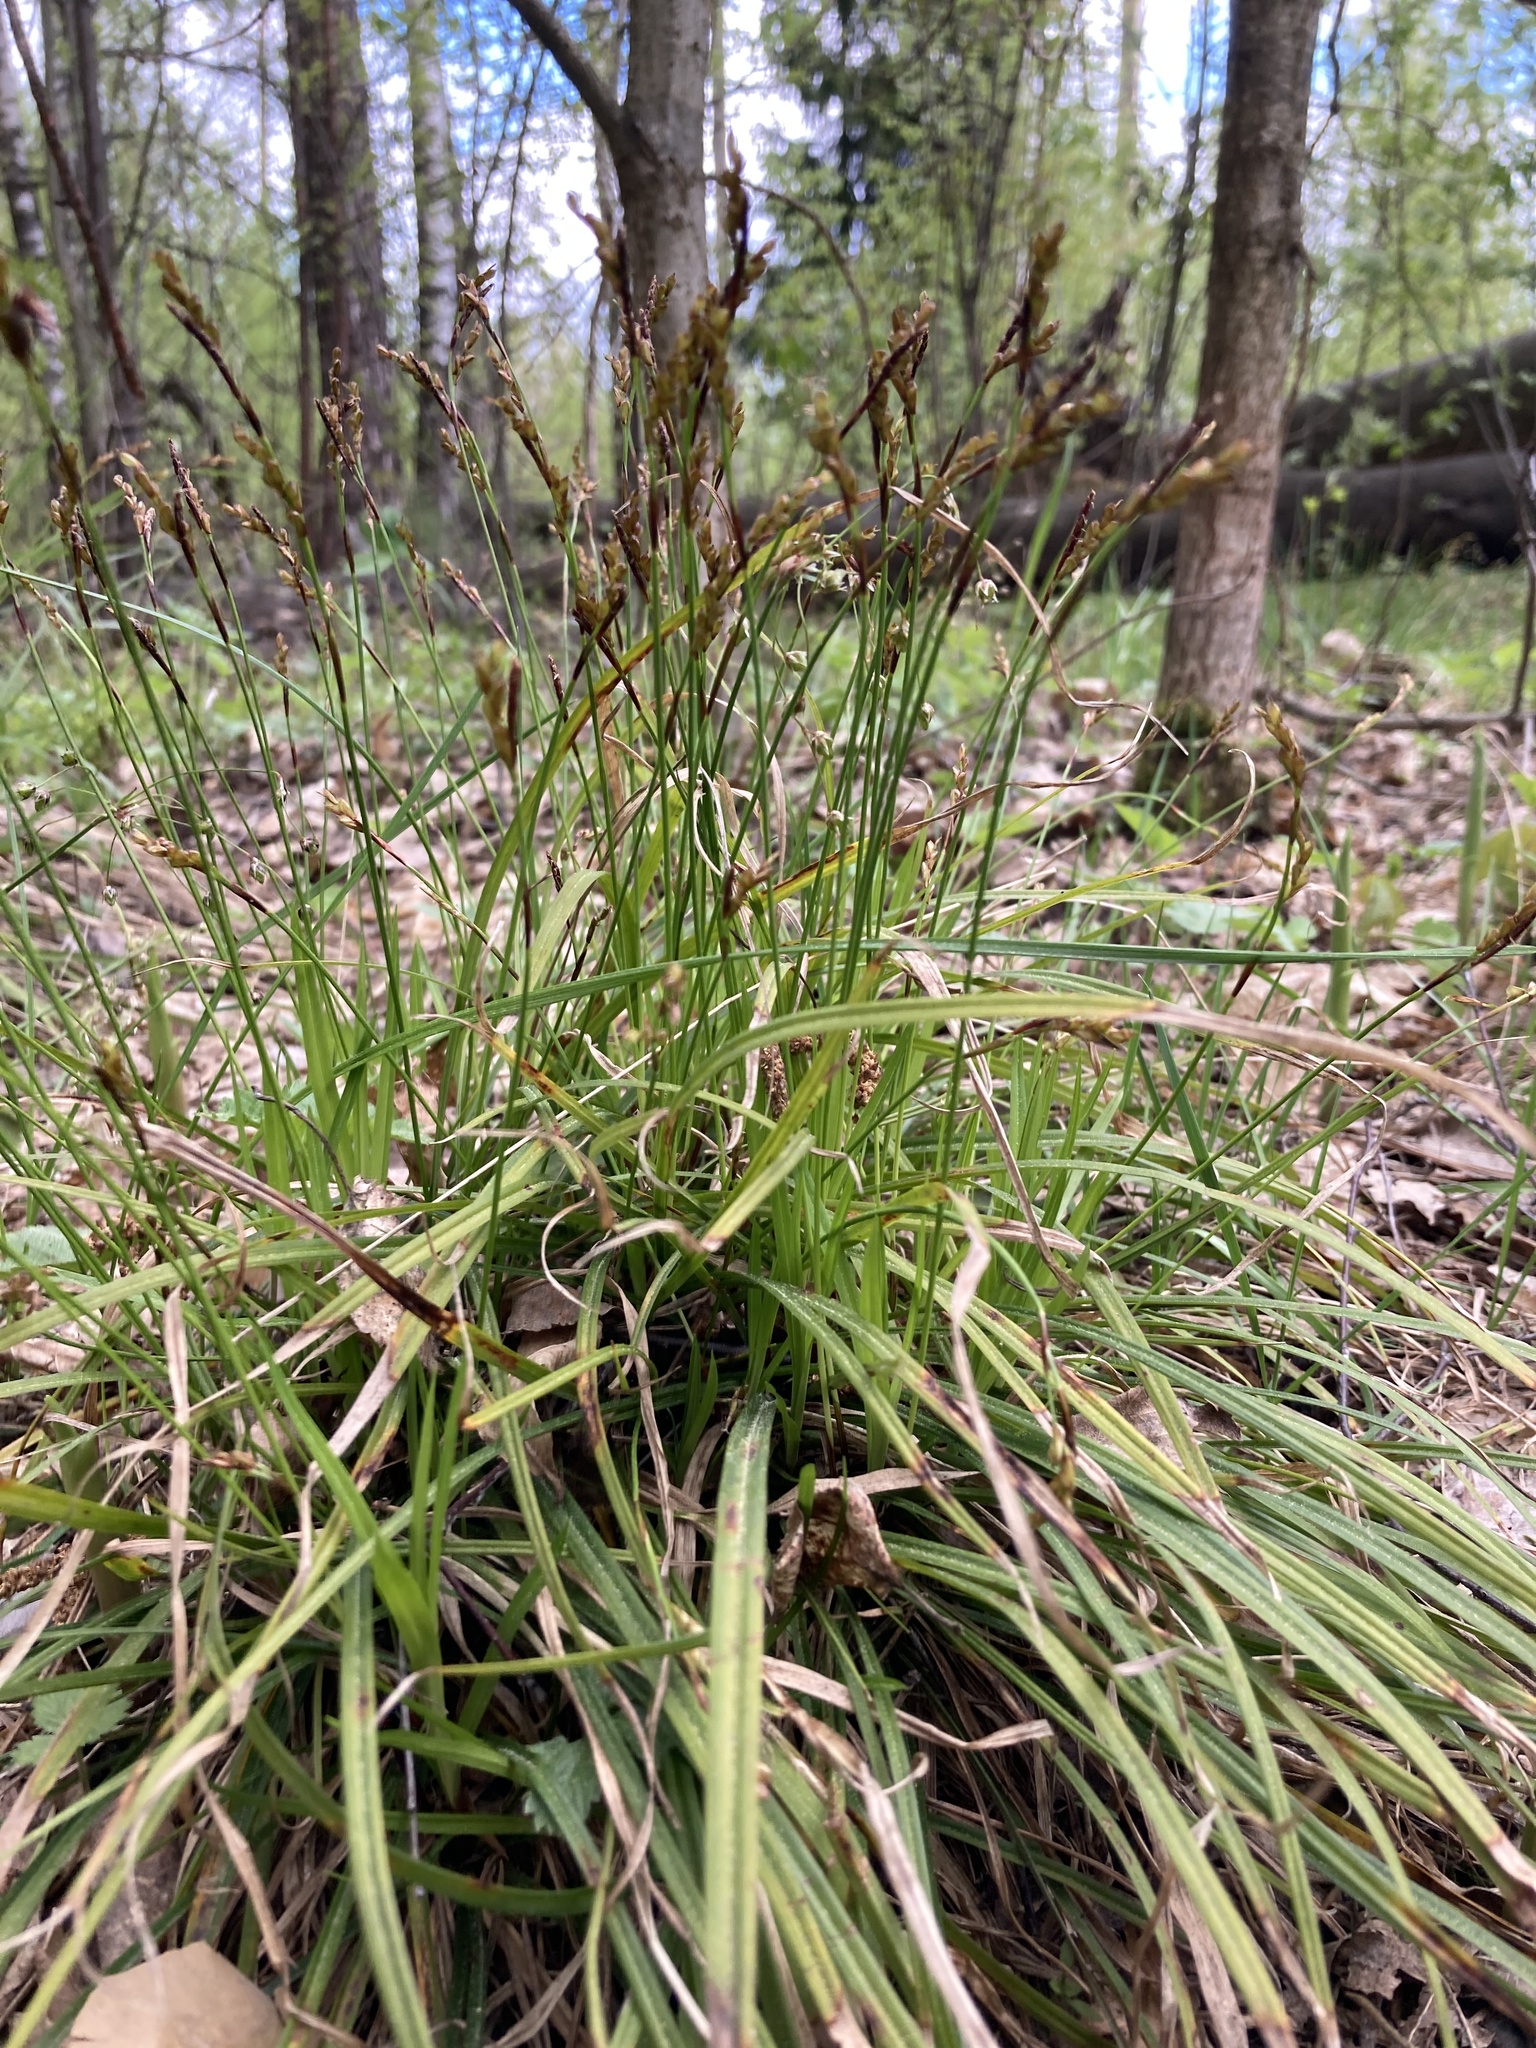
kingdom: Plantae
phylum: Tracheophyta
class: Liliopsida
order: Poales
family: Cyperaceae
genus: Carex
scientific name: Carex digitata
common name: Fingered sedge
